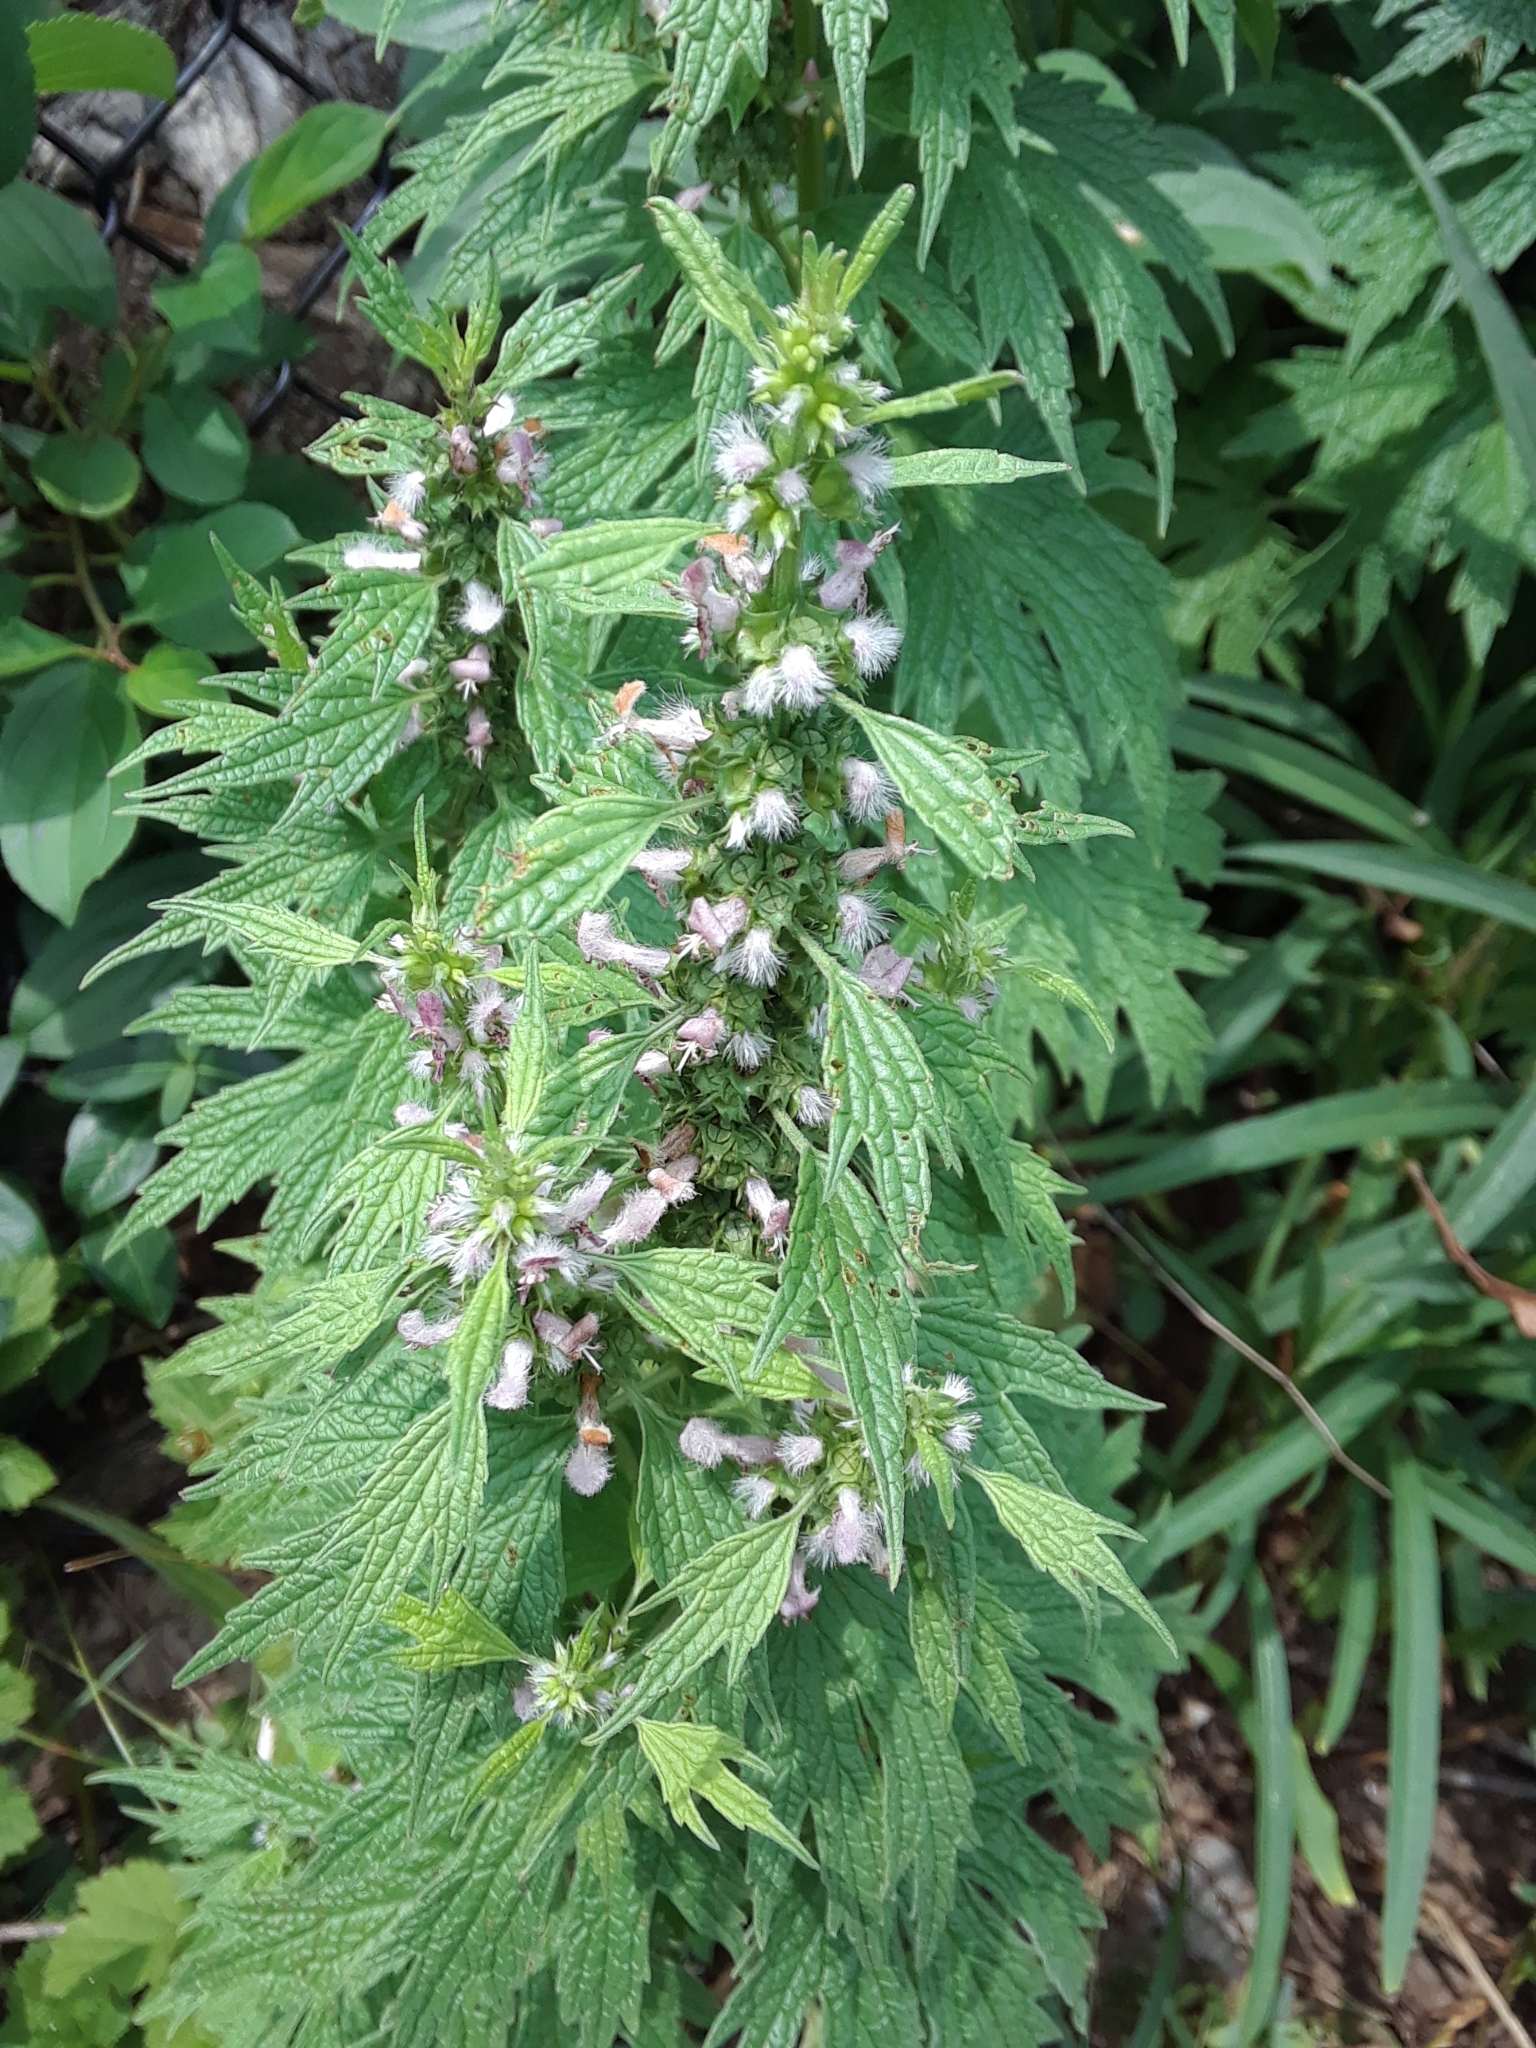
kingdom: Plantae
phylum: Tracheophyta
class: Magnoliopsida
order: Lamiales
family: Lamiaceae
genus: Leonurus
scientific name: Leonurus cardiaca
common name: Motherwort
